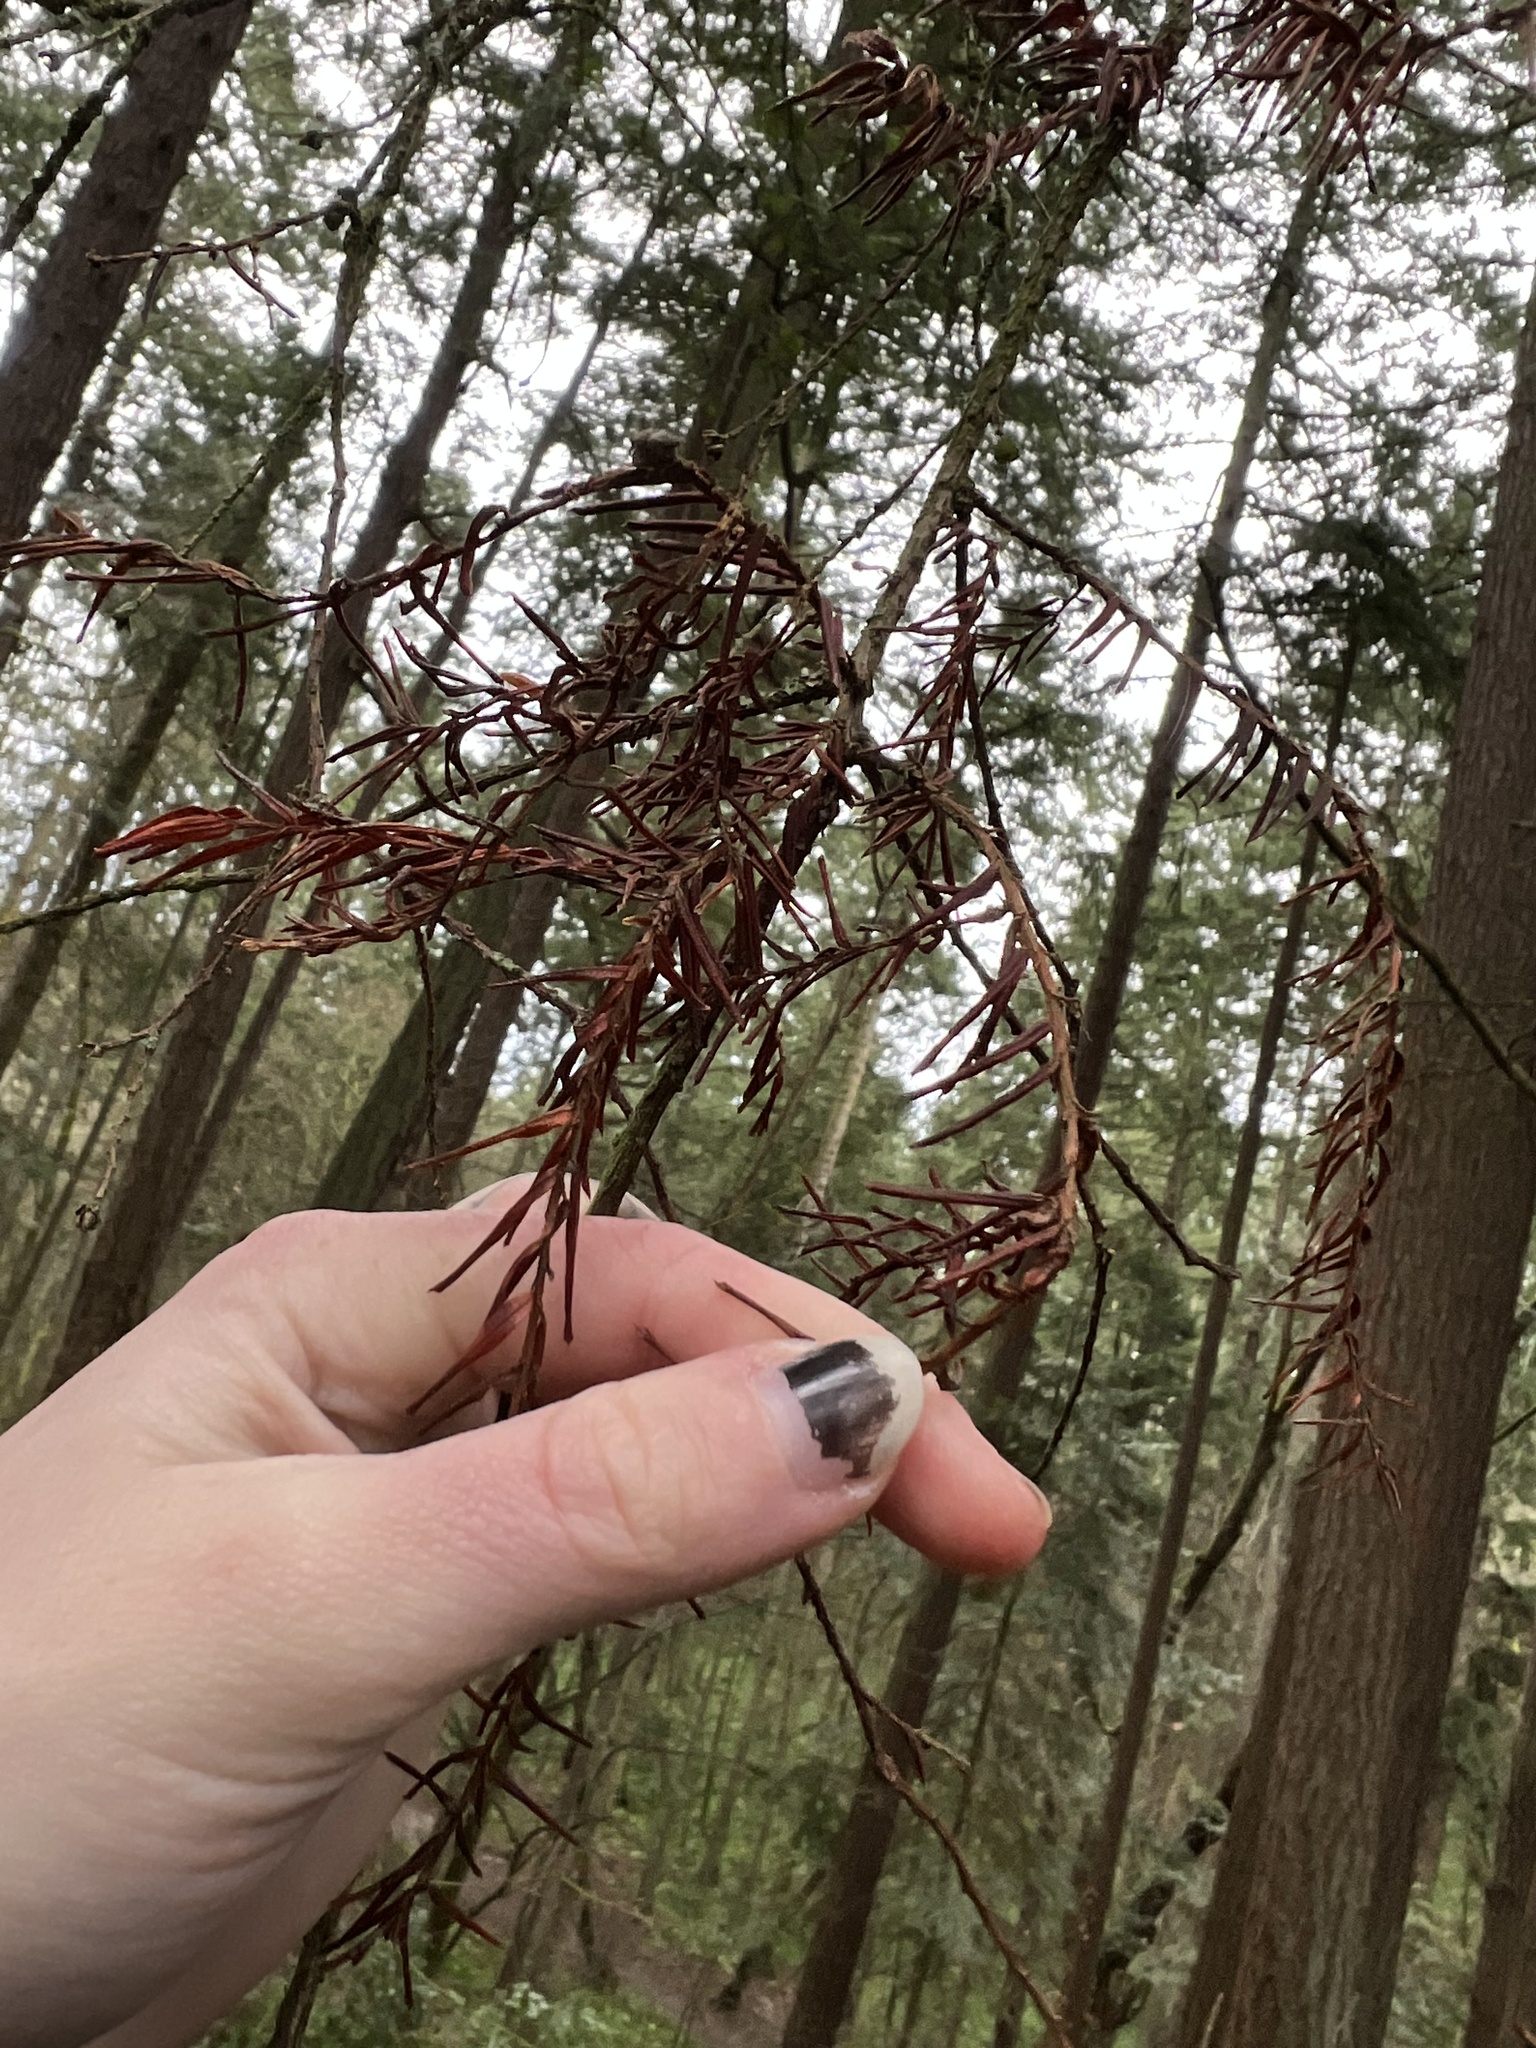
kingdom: Plantae
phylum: Tracheophyta
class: Pinopsida
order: Pinales
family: Taxaceae
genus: Taxus
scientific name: Taxus brevifolia
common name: Pacific yew
